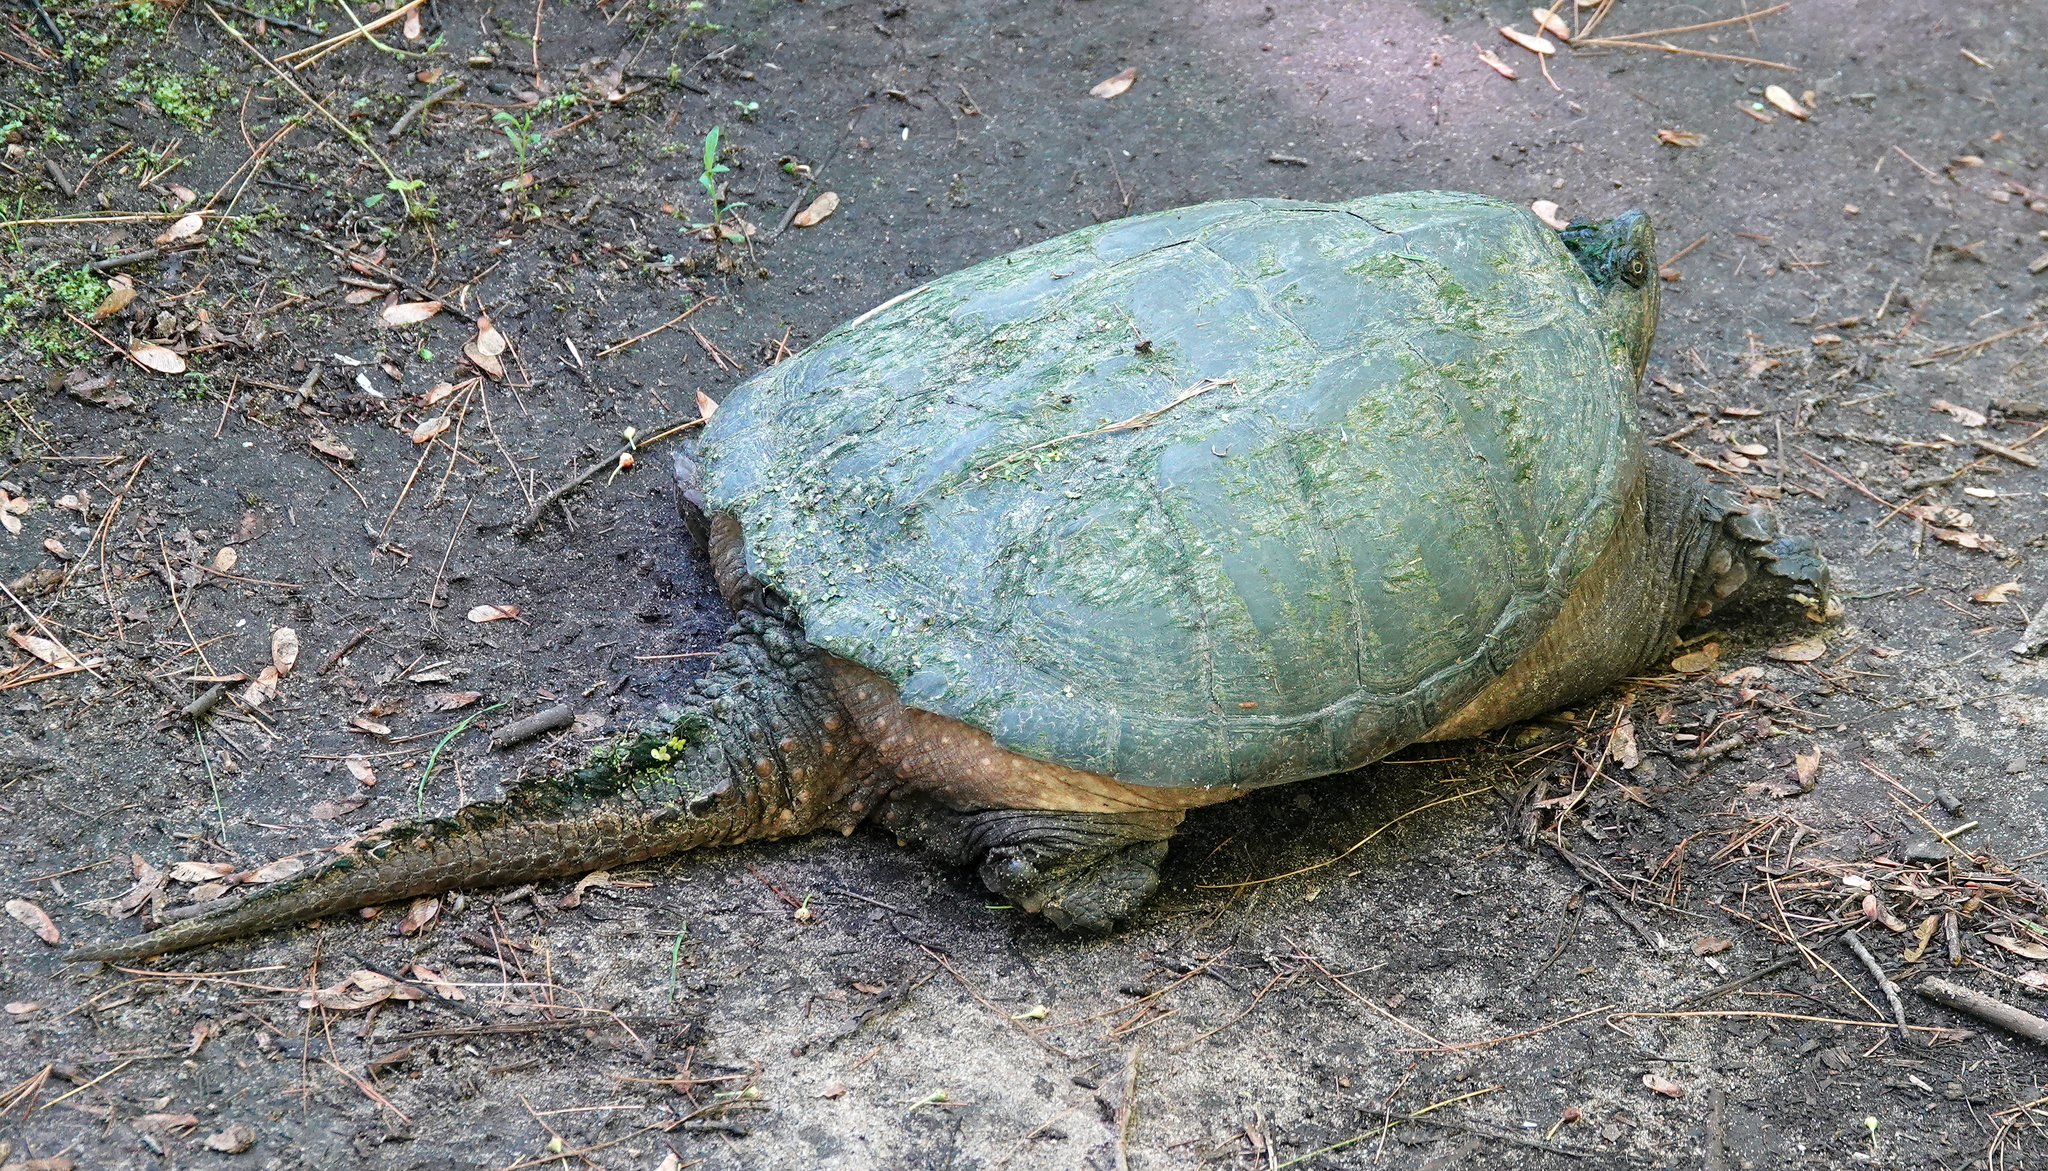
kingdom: Animalia
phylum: Chordata
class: Testudines
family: Chelydridae
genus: Chelydra
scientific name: Chelydra serpentina
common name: Common snapping turtle
